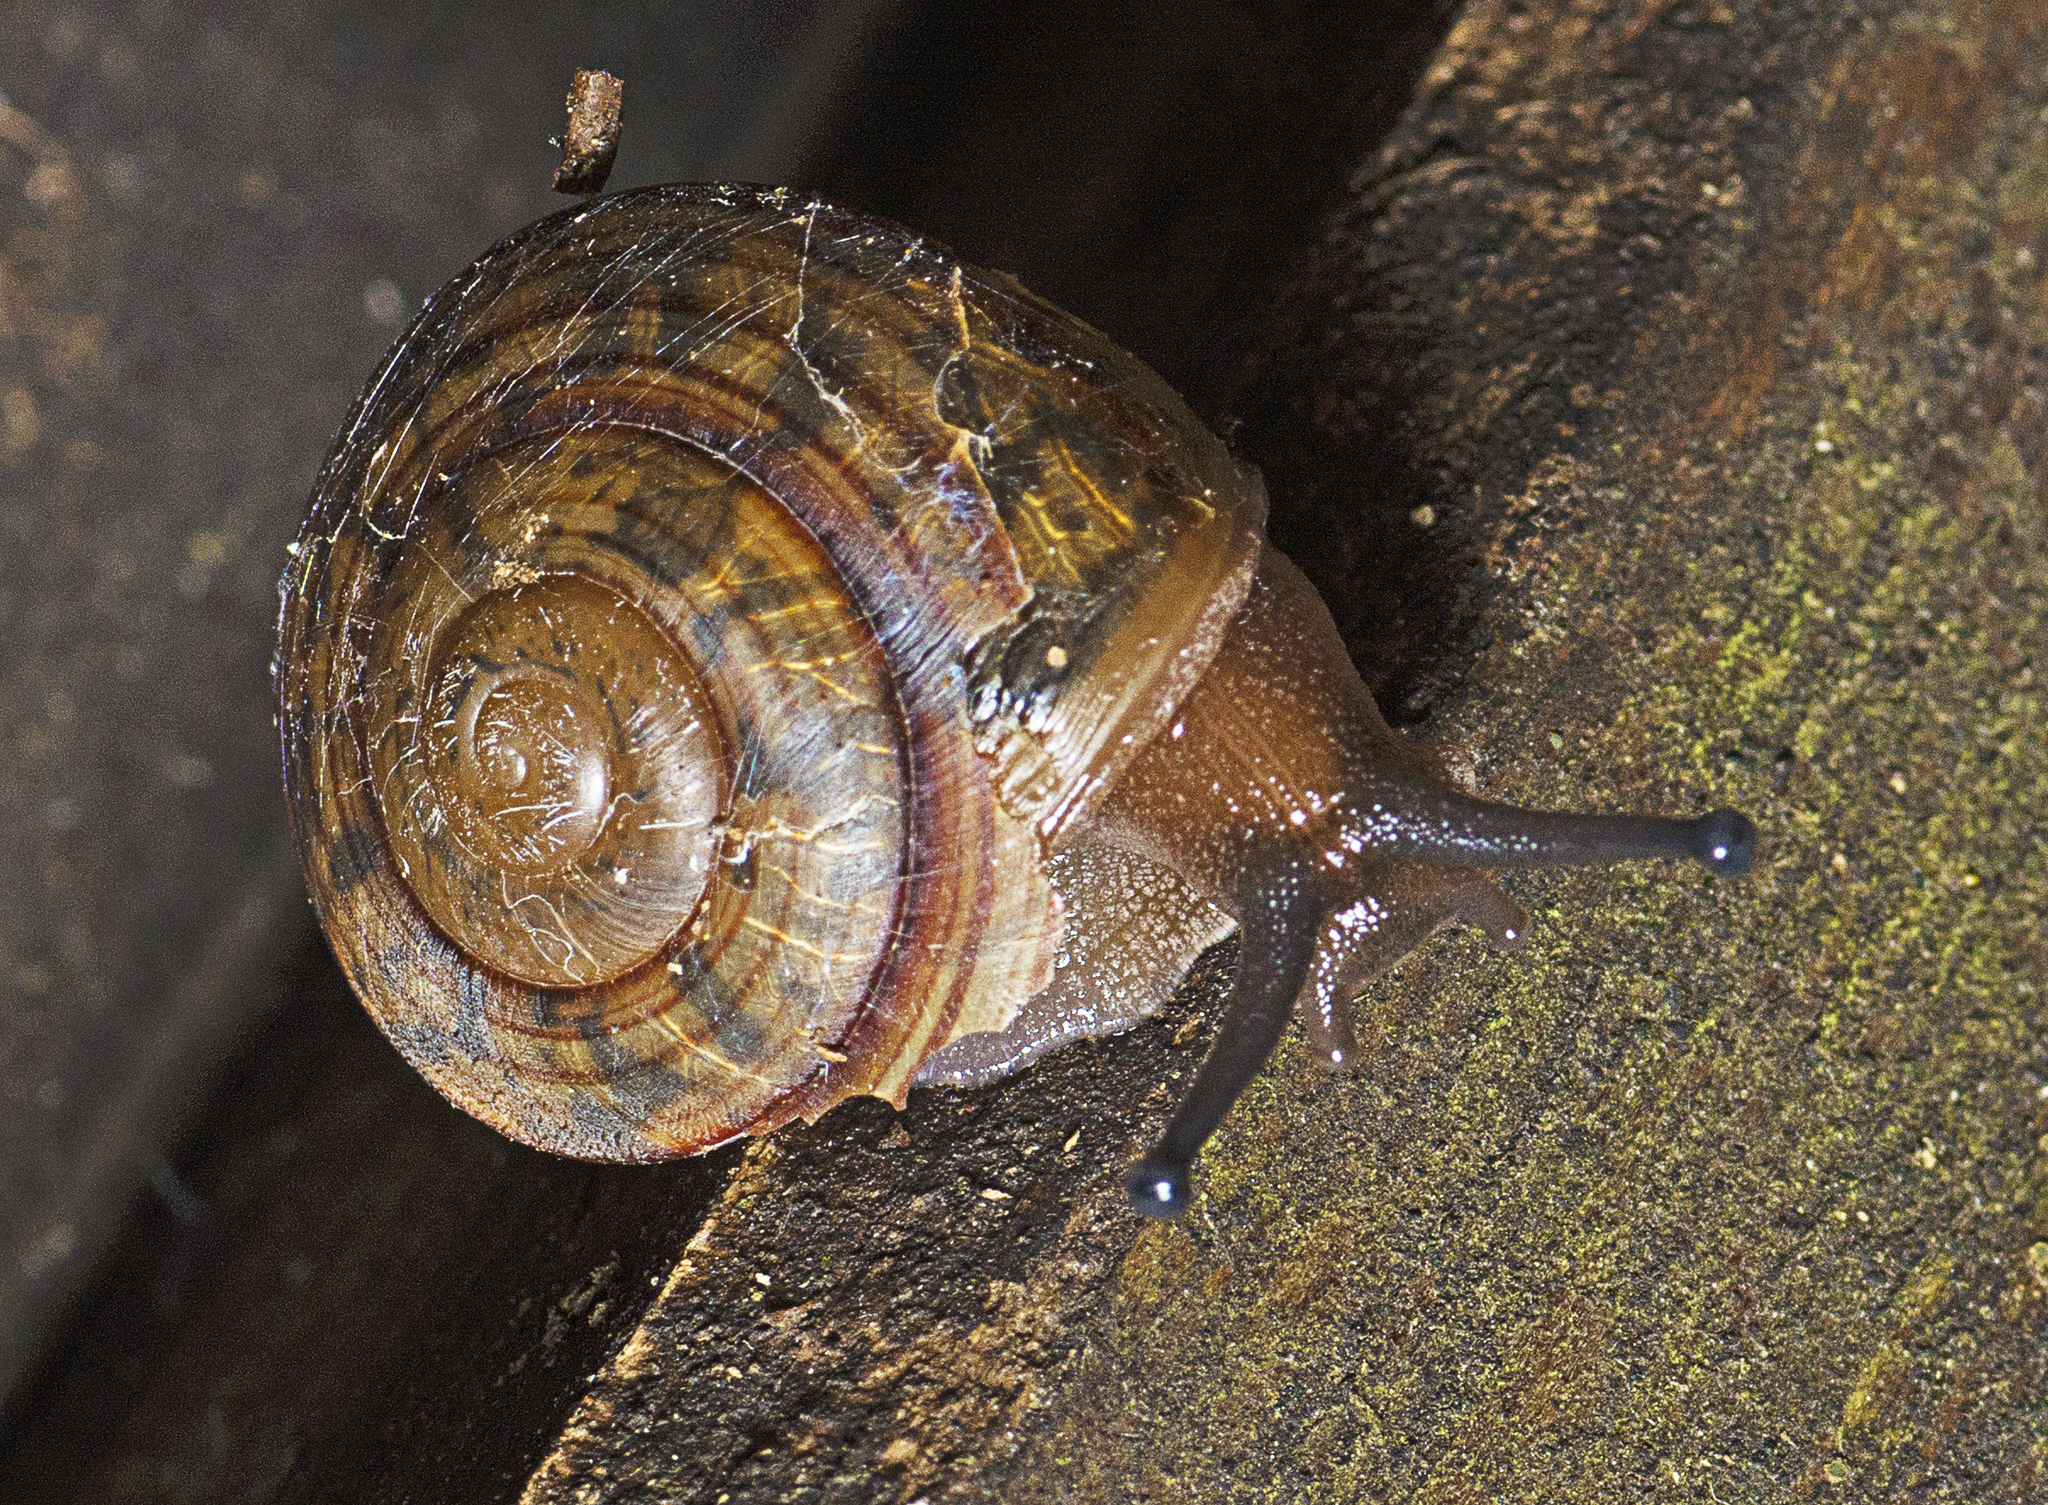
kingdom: Animalia
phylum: Mollusca
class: Gastropoda
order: Stylommatophora
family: Camaenidae
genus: Sphaerospira
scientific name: Sphaerospira fraseri
